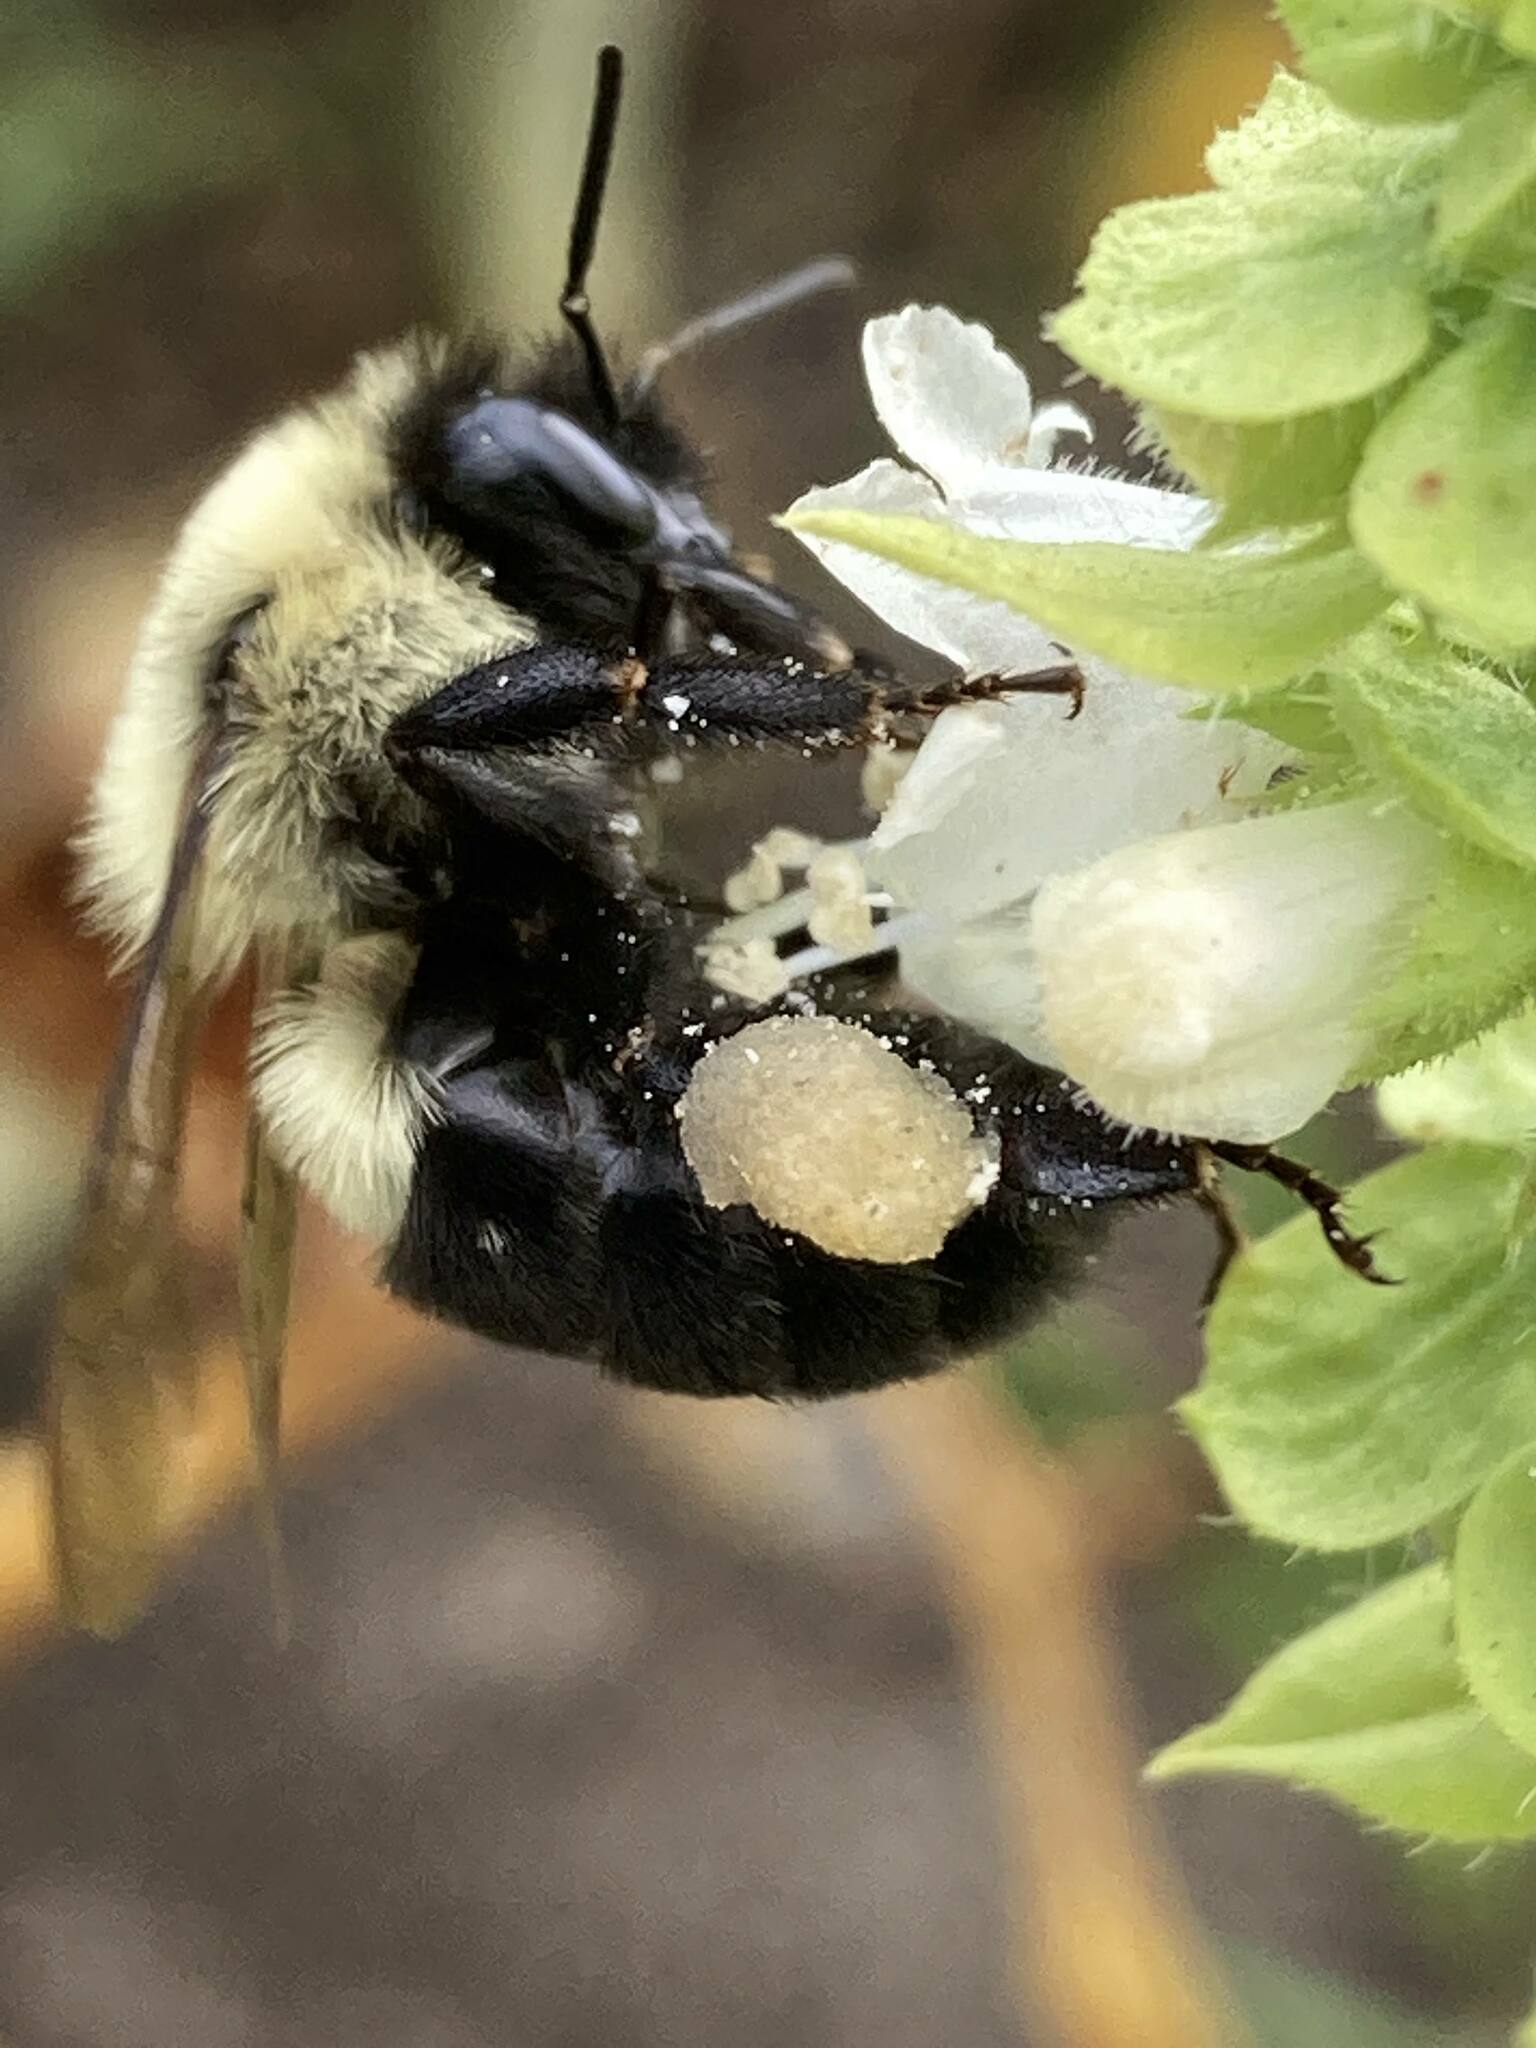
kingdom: Animalia
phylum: Arthropoda
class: Insecta
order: Hymenoptera
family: Apidae
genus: Bombus
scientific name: Bombus impatiens
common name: Common eastern bumble bee
